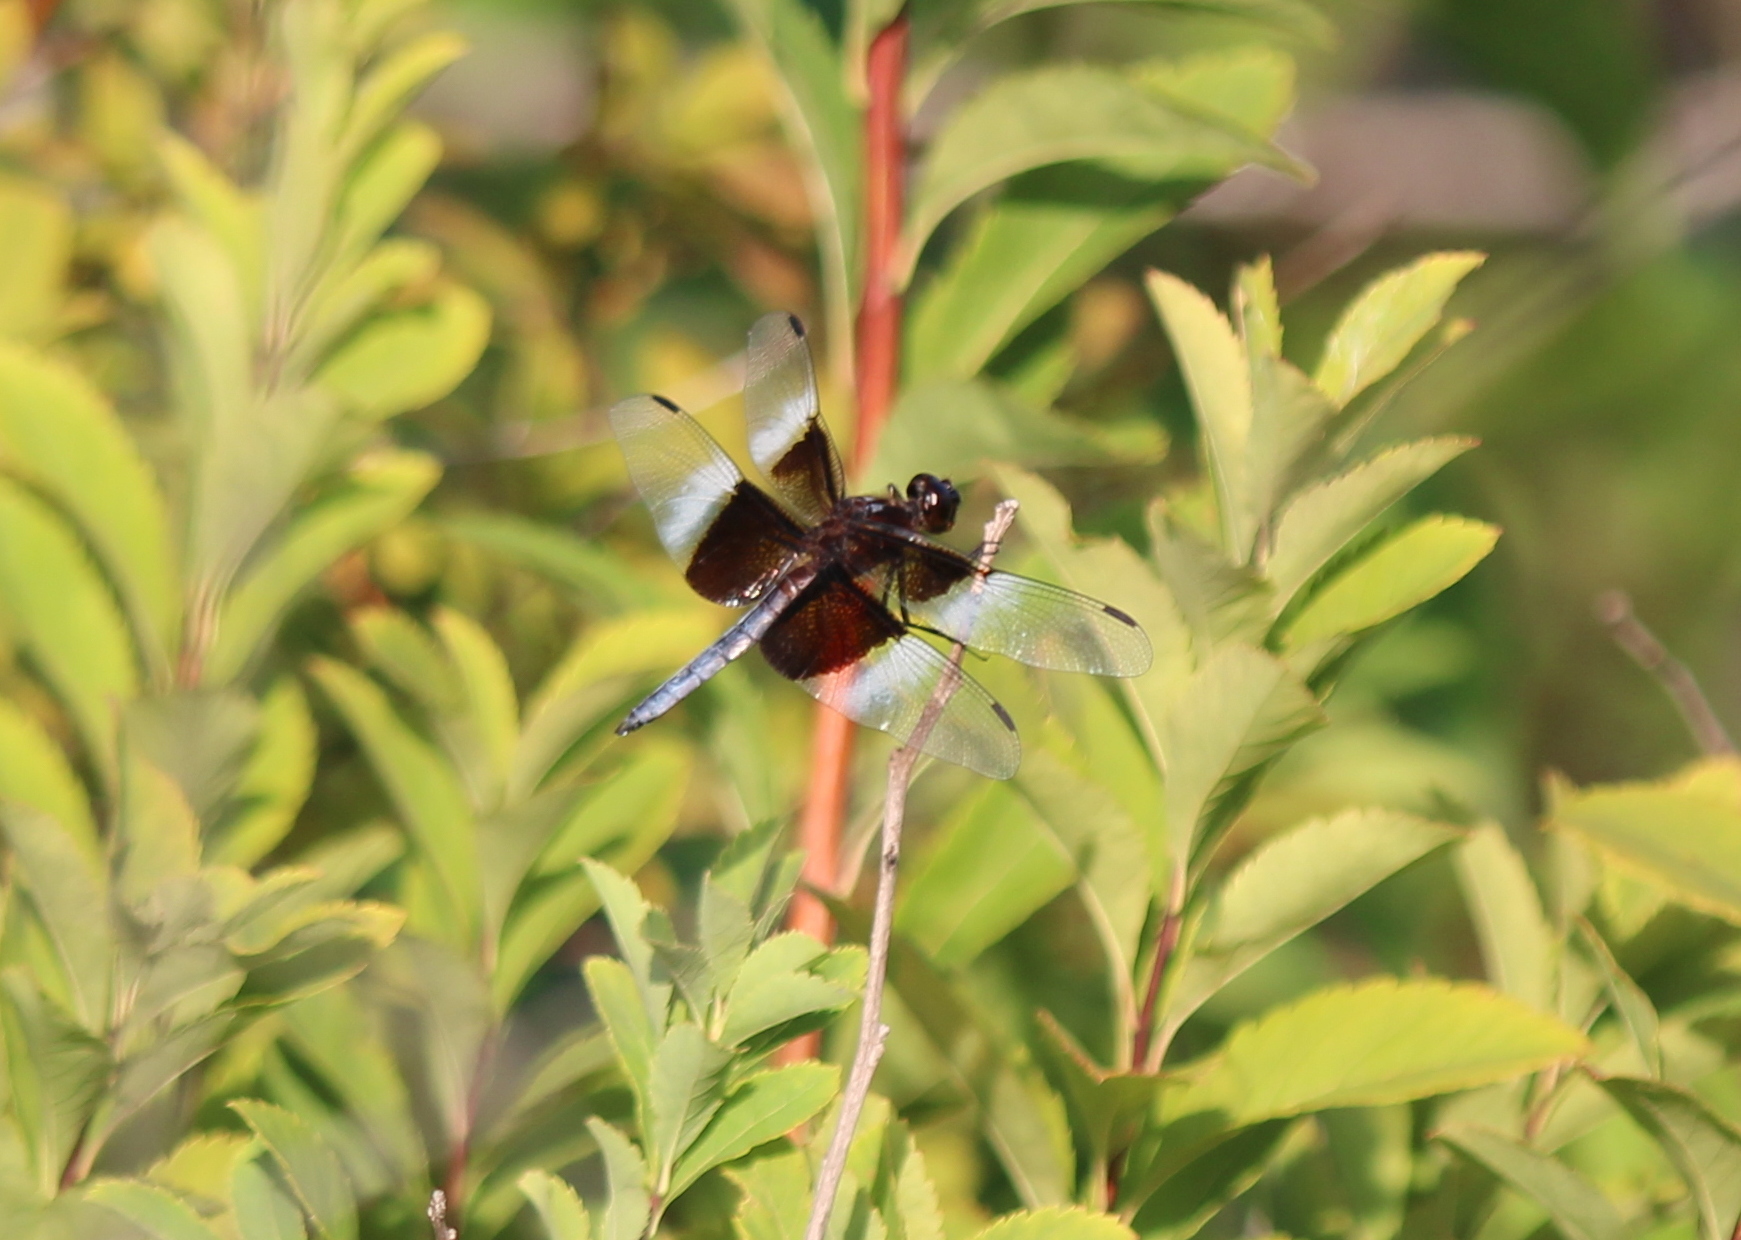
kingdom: Animalia
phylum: Arthropoda
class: Insecta
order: Odonata
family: Libellulidae
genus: Libellula
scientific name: Libellula luctuosa
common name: Widow skimmer
